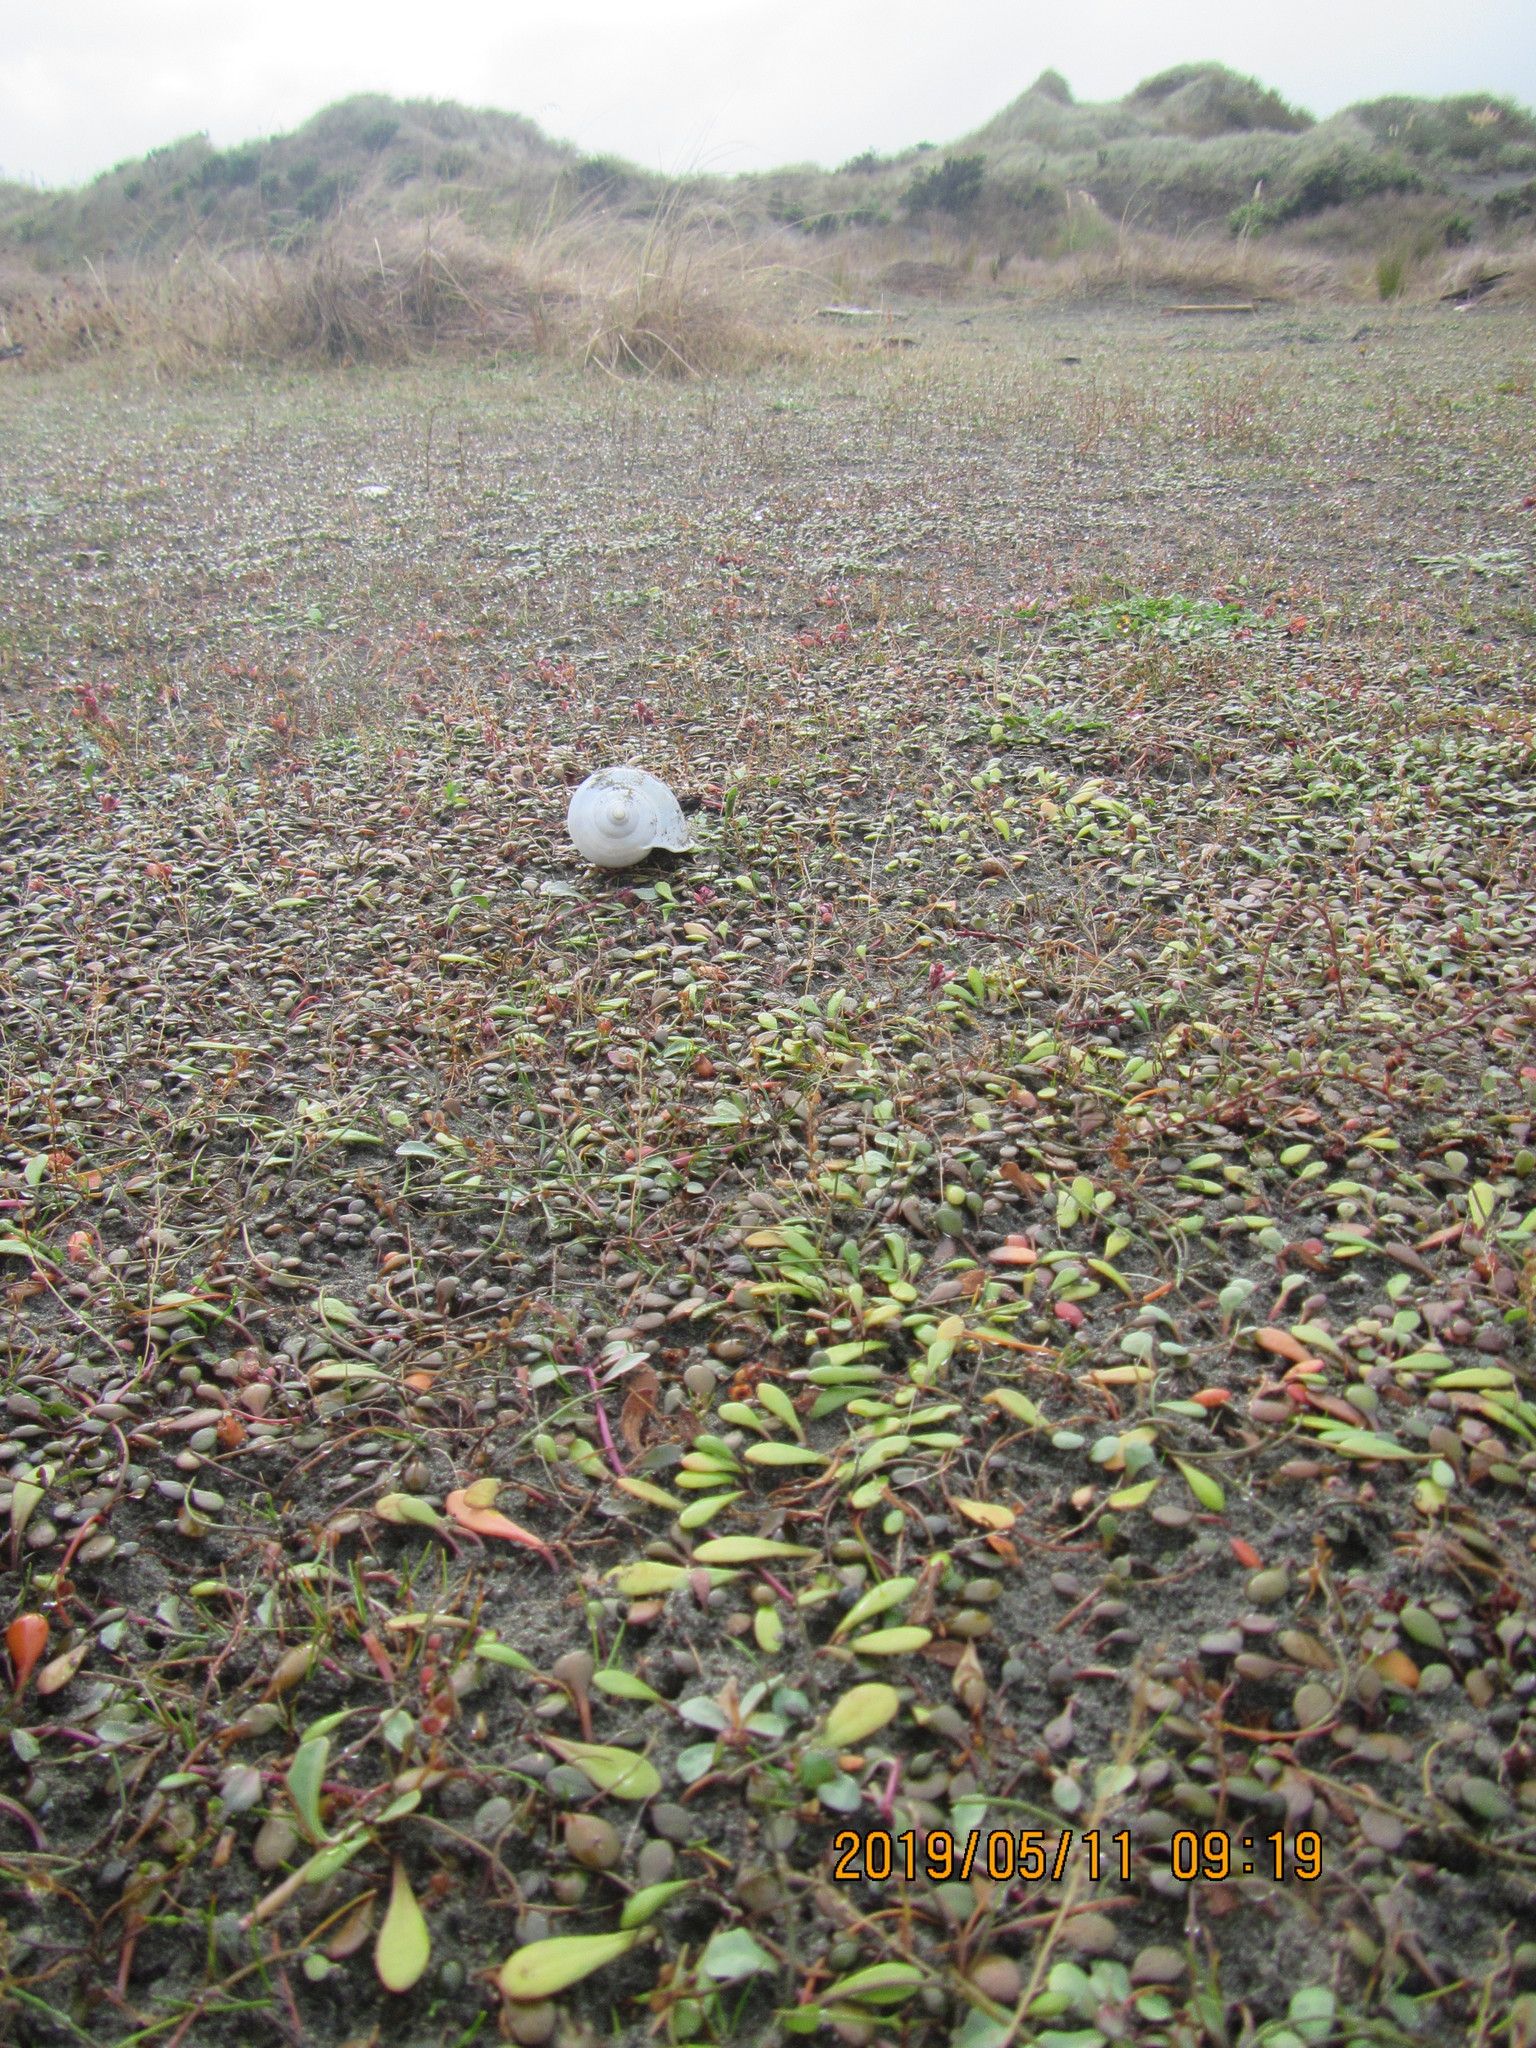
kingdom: Plantae
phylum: Tracheophyta
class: Magnoliopsida
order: Asterales
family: Goodeniaceae
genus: Goodenia
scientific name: Goodenia radicans
